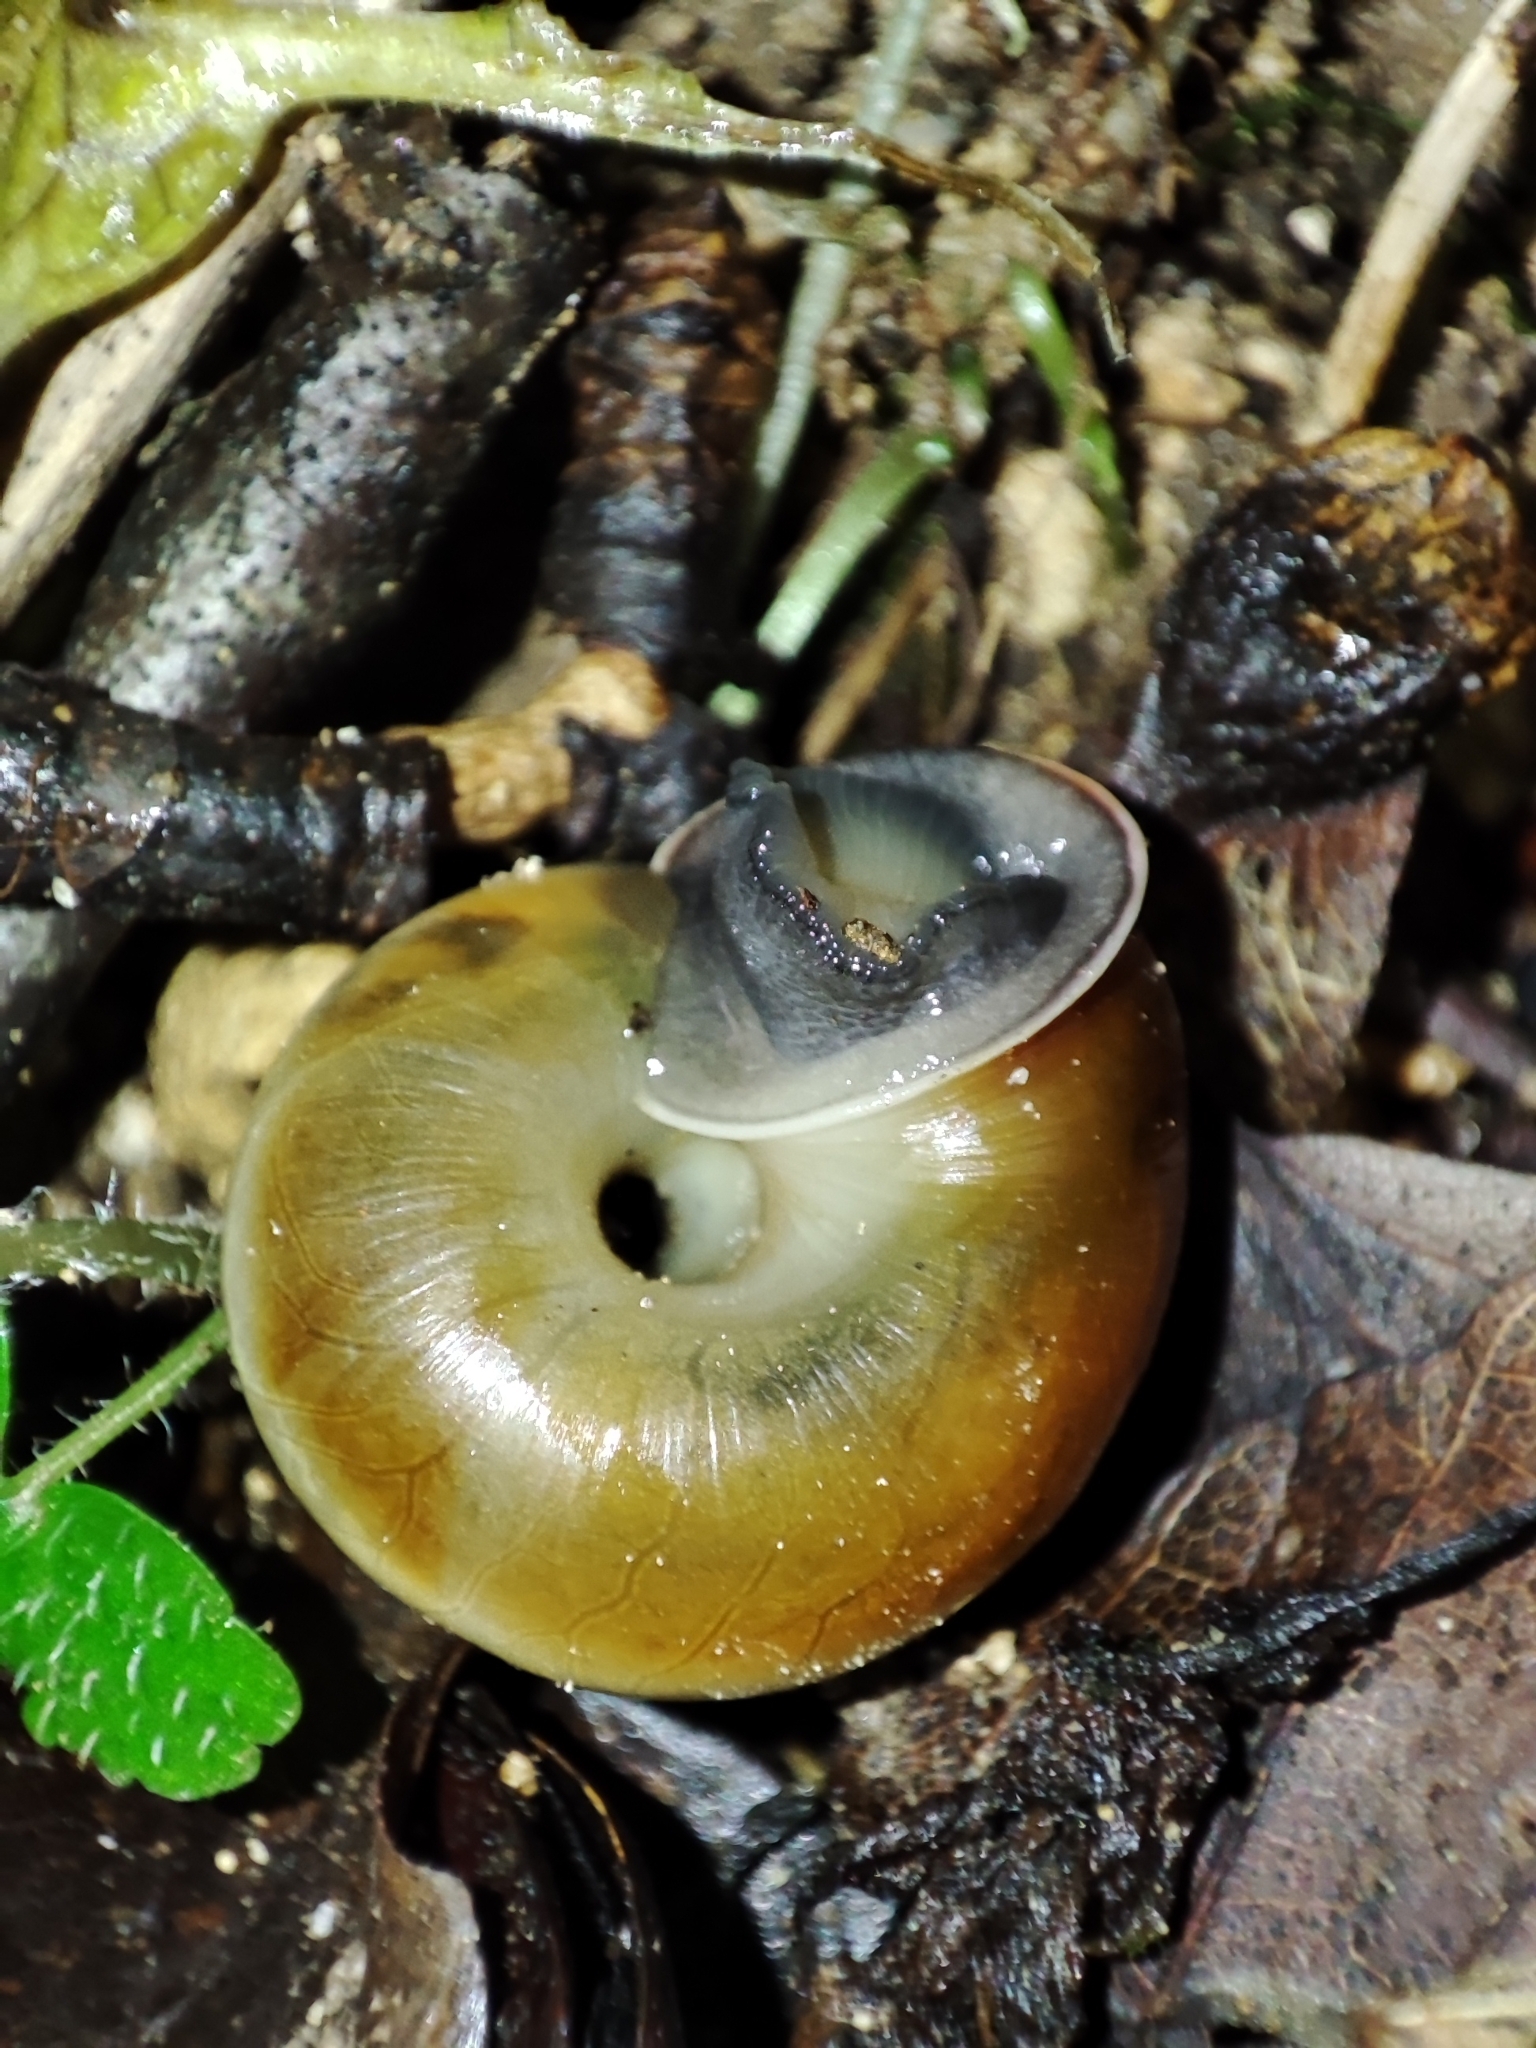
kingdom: Animalia
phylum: Mollusca
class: Gastropoda
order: Stylommatophora
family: Helicidae
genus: Faustina
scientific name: Faustina faustina
